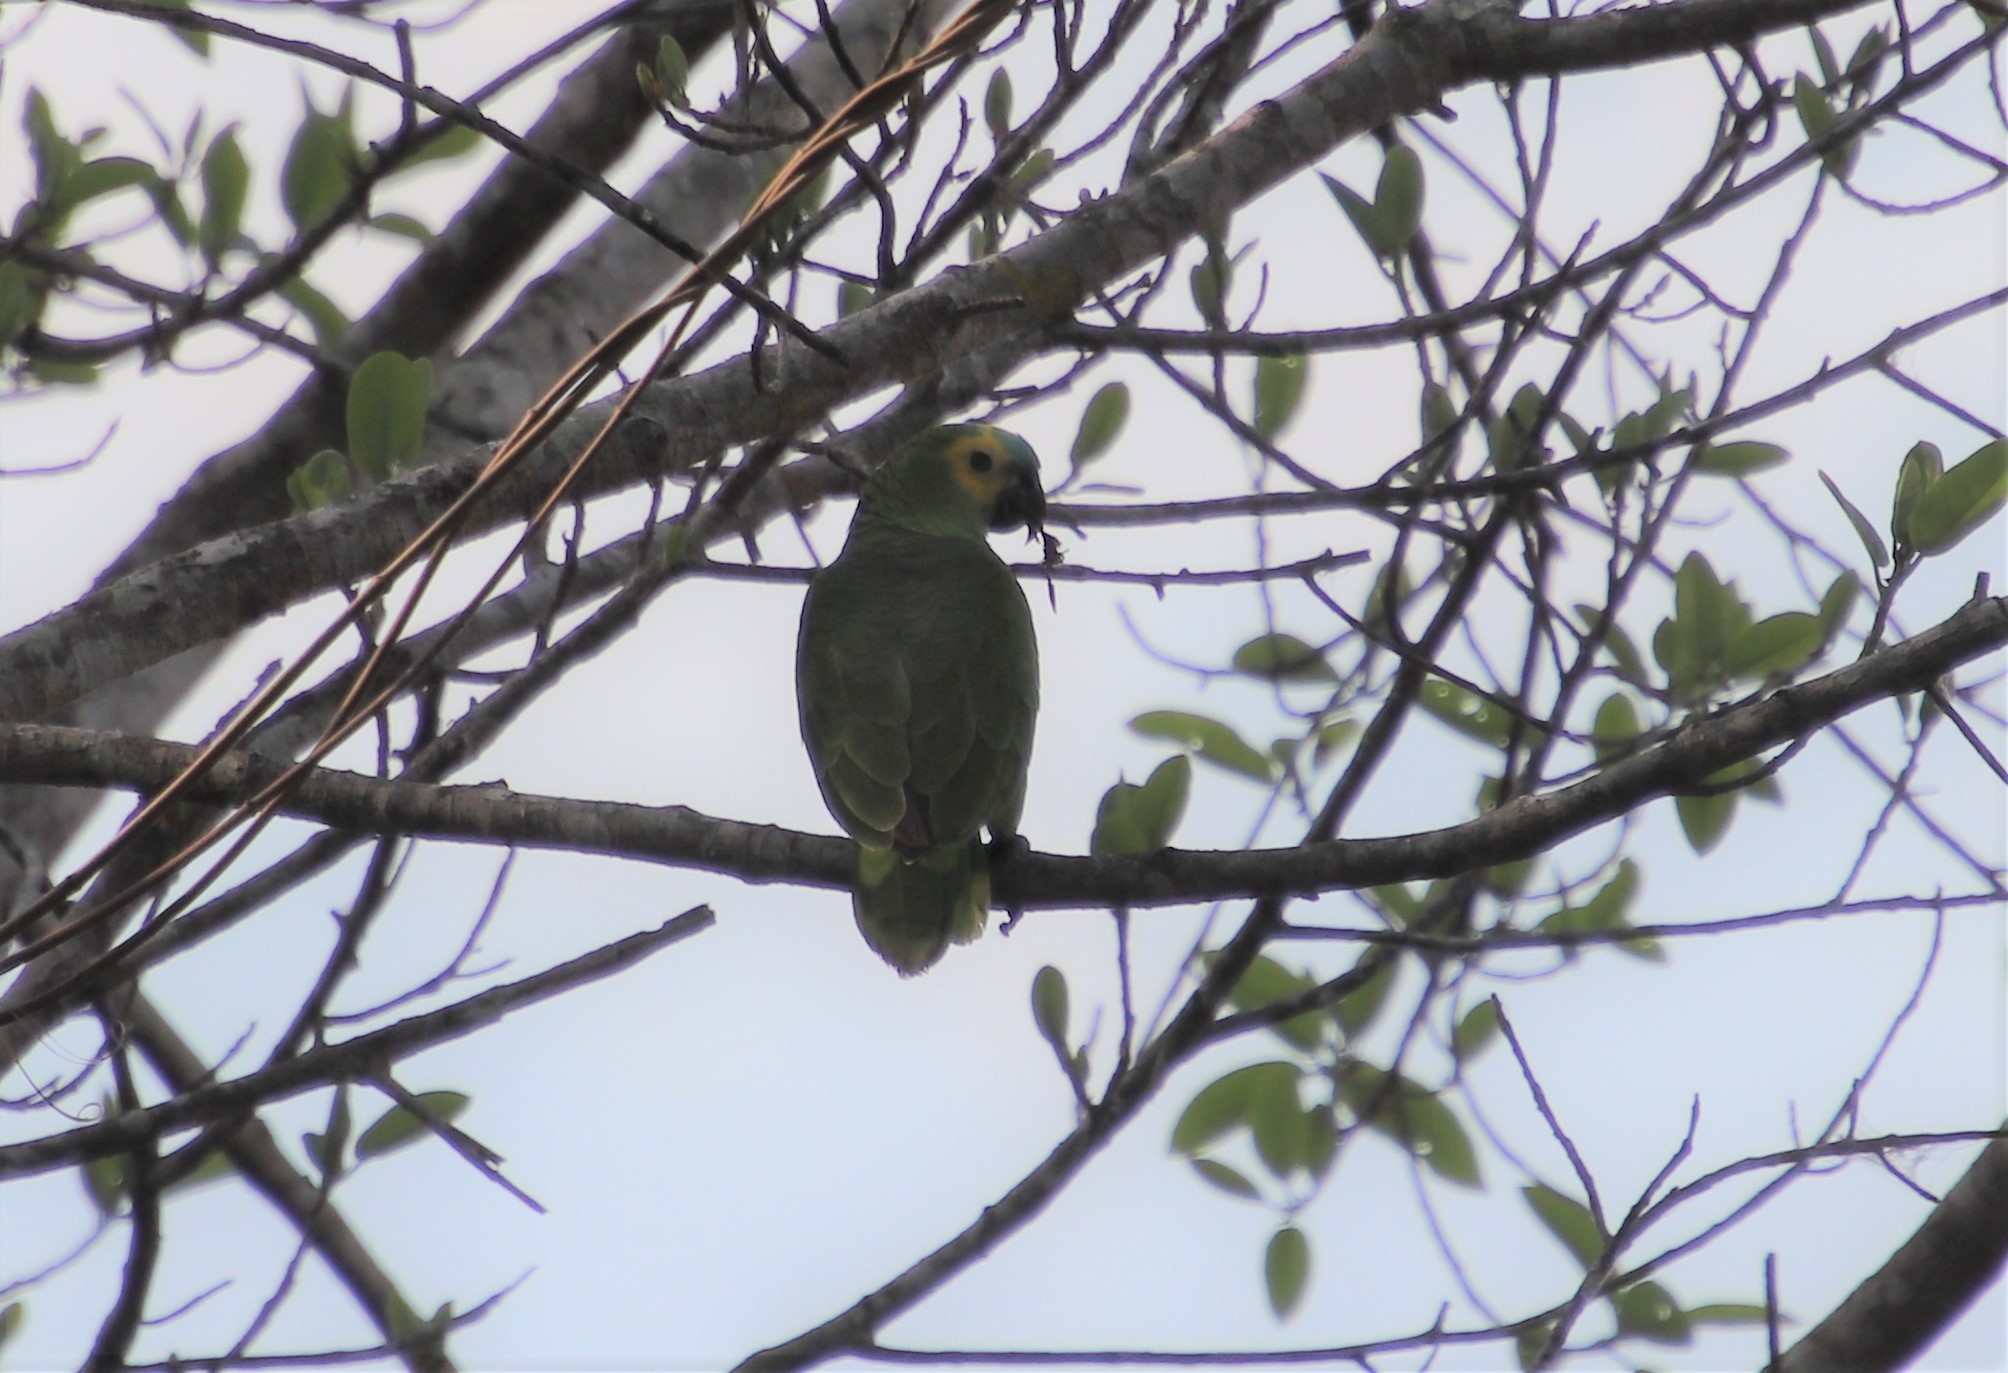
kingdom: Animalia
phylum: Chordata
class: Aves
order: Psittaciformes
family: Psittacidae
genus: Amazona
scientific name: Amazona aestiva
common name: Turquoise-fronted amazon
